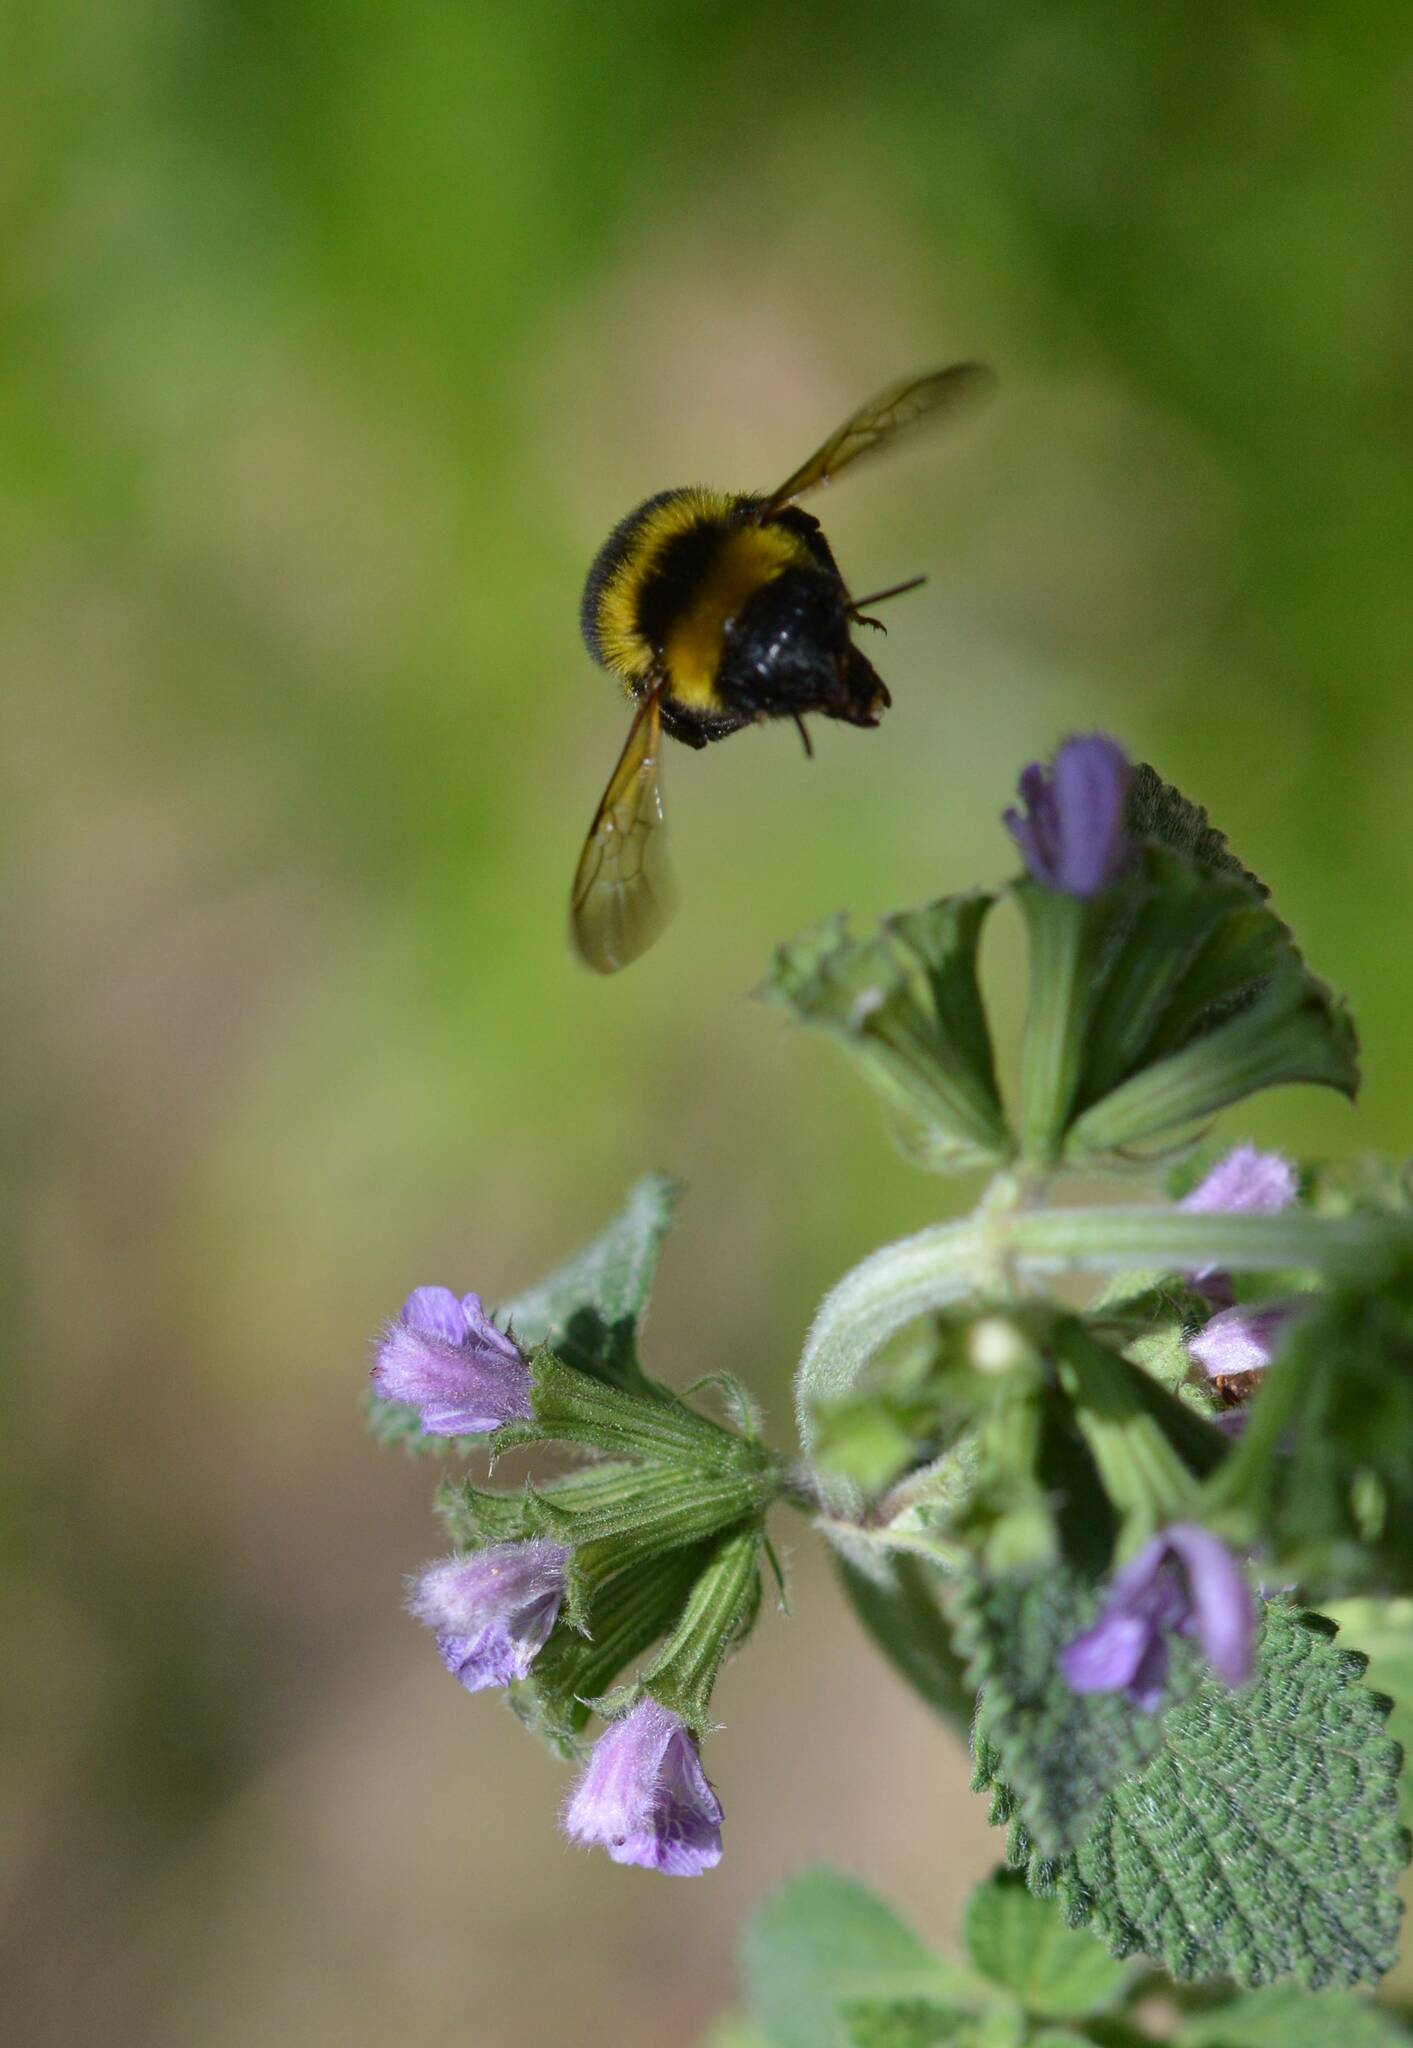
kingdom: Animalia
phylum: Arthropoda
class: Insecta
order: Hymenoptera
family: Apidae
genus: Bombus
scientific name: Bombus ruderatus
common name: Large garden bumblebee
